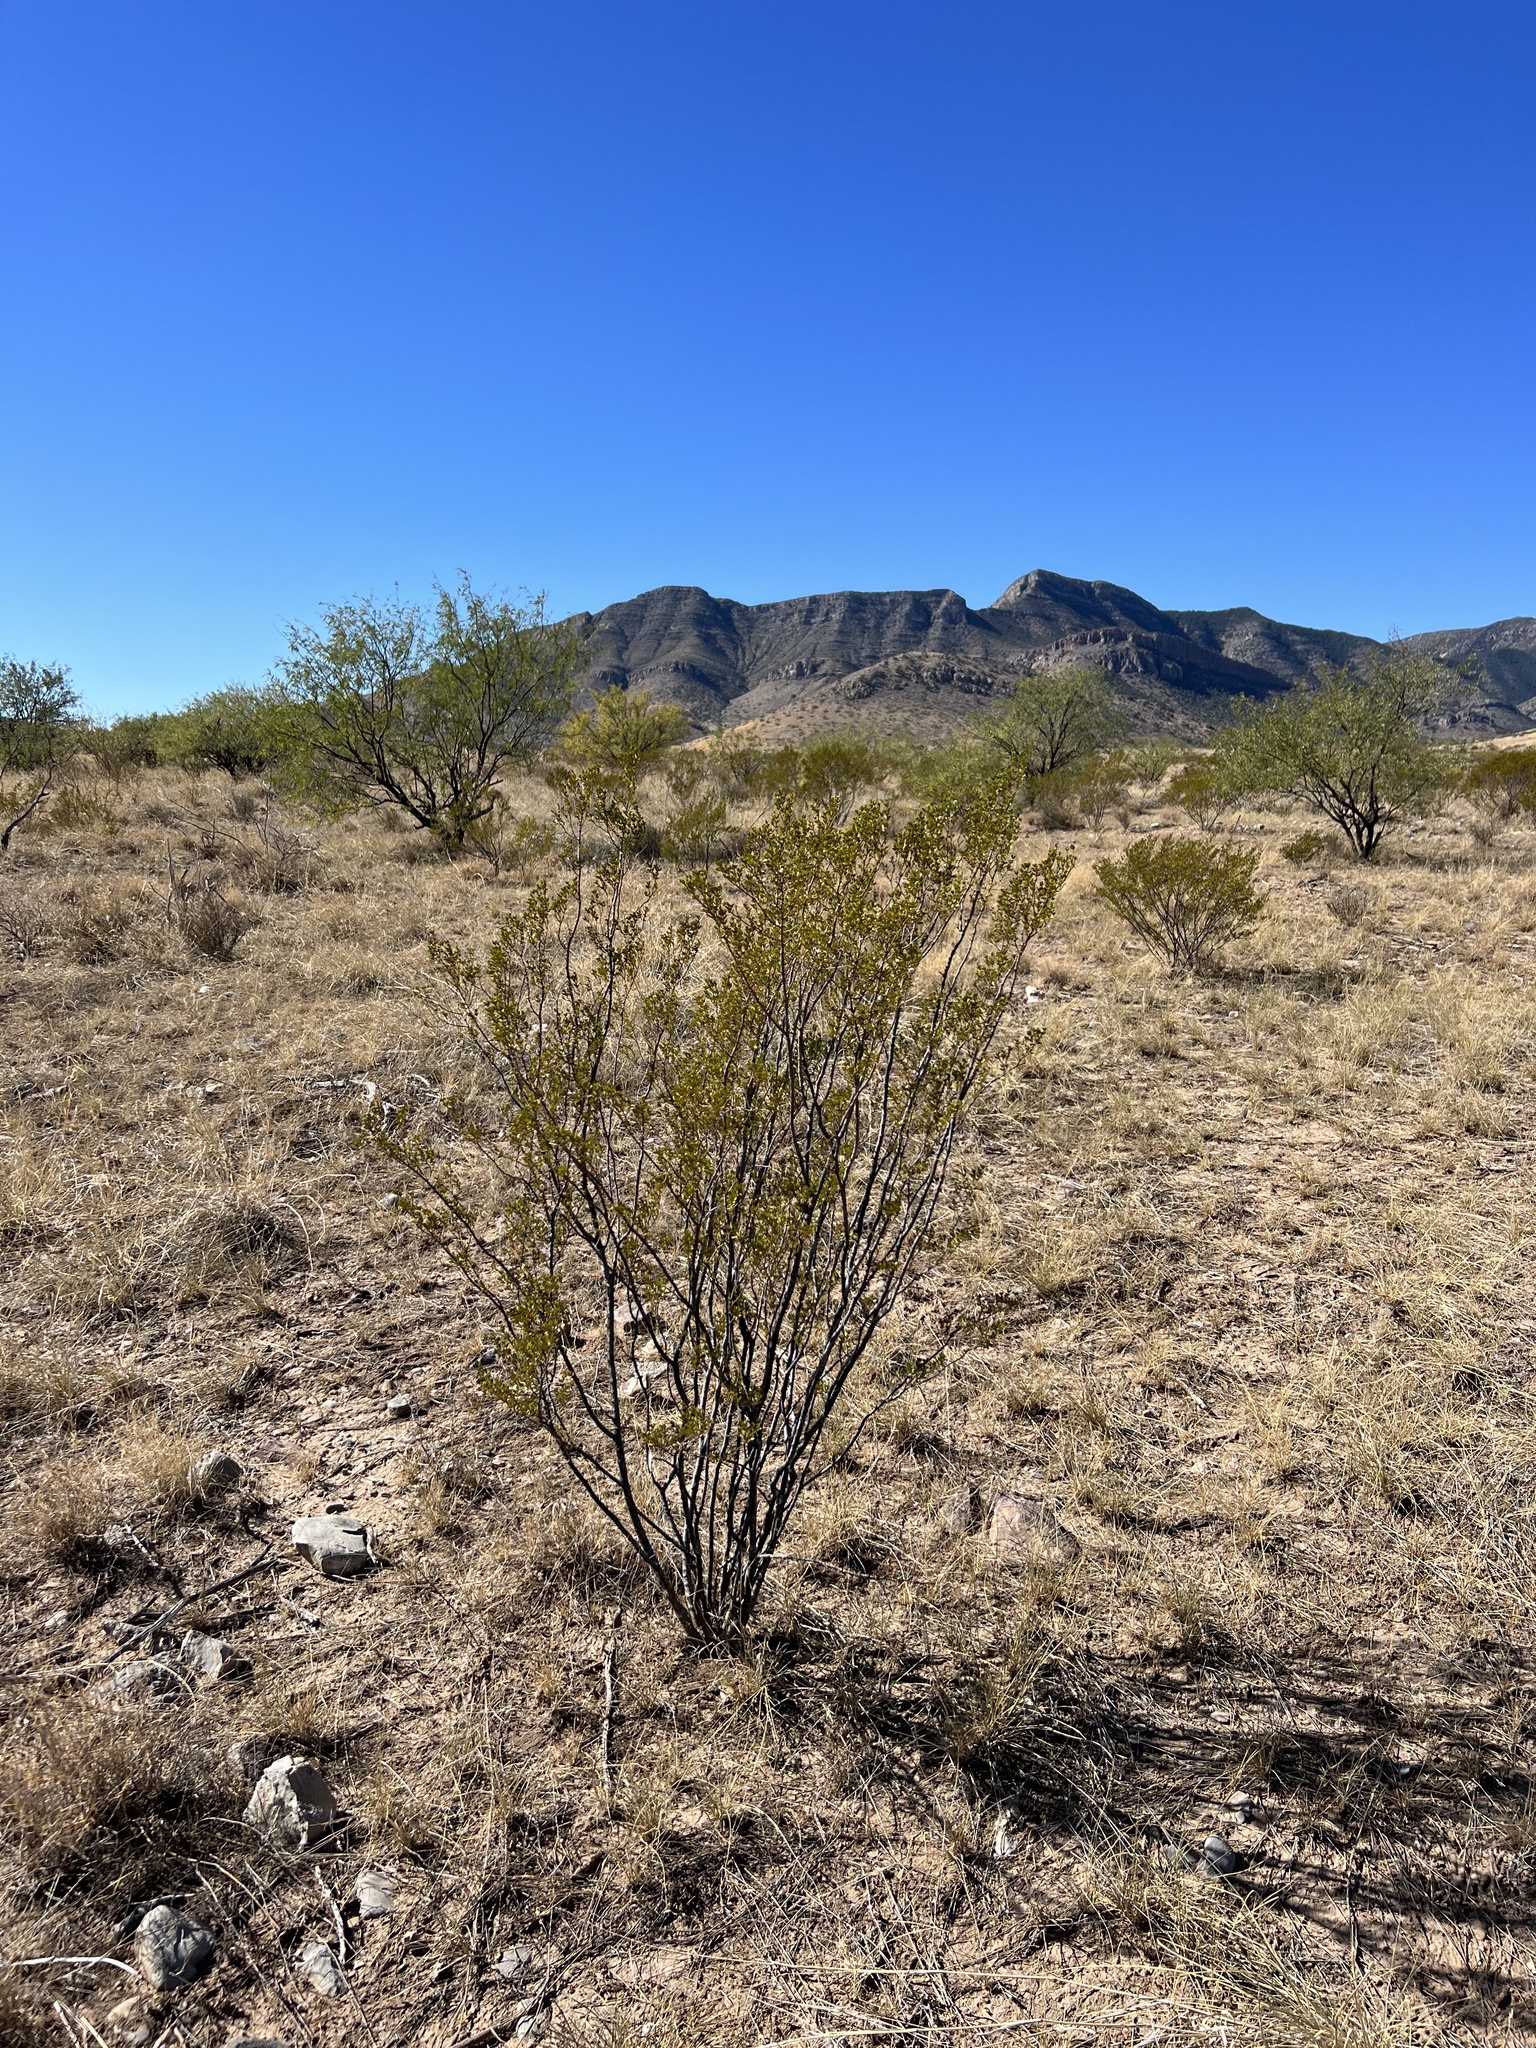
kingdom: Plantae
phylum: Tracheophyta
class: Magnoliopsida
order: Zygophyllales
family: Zygophyllaceae
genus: Larrea
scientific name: Larrea tridentata
